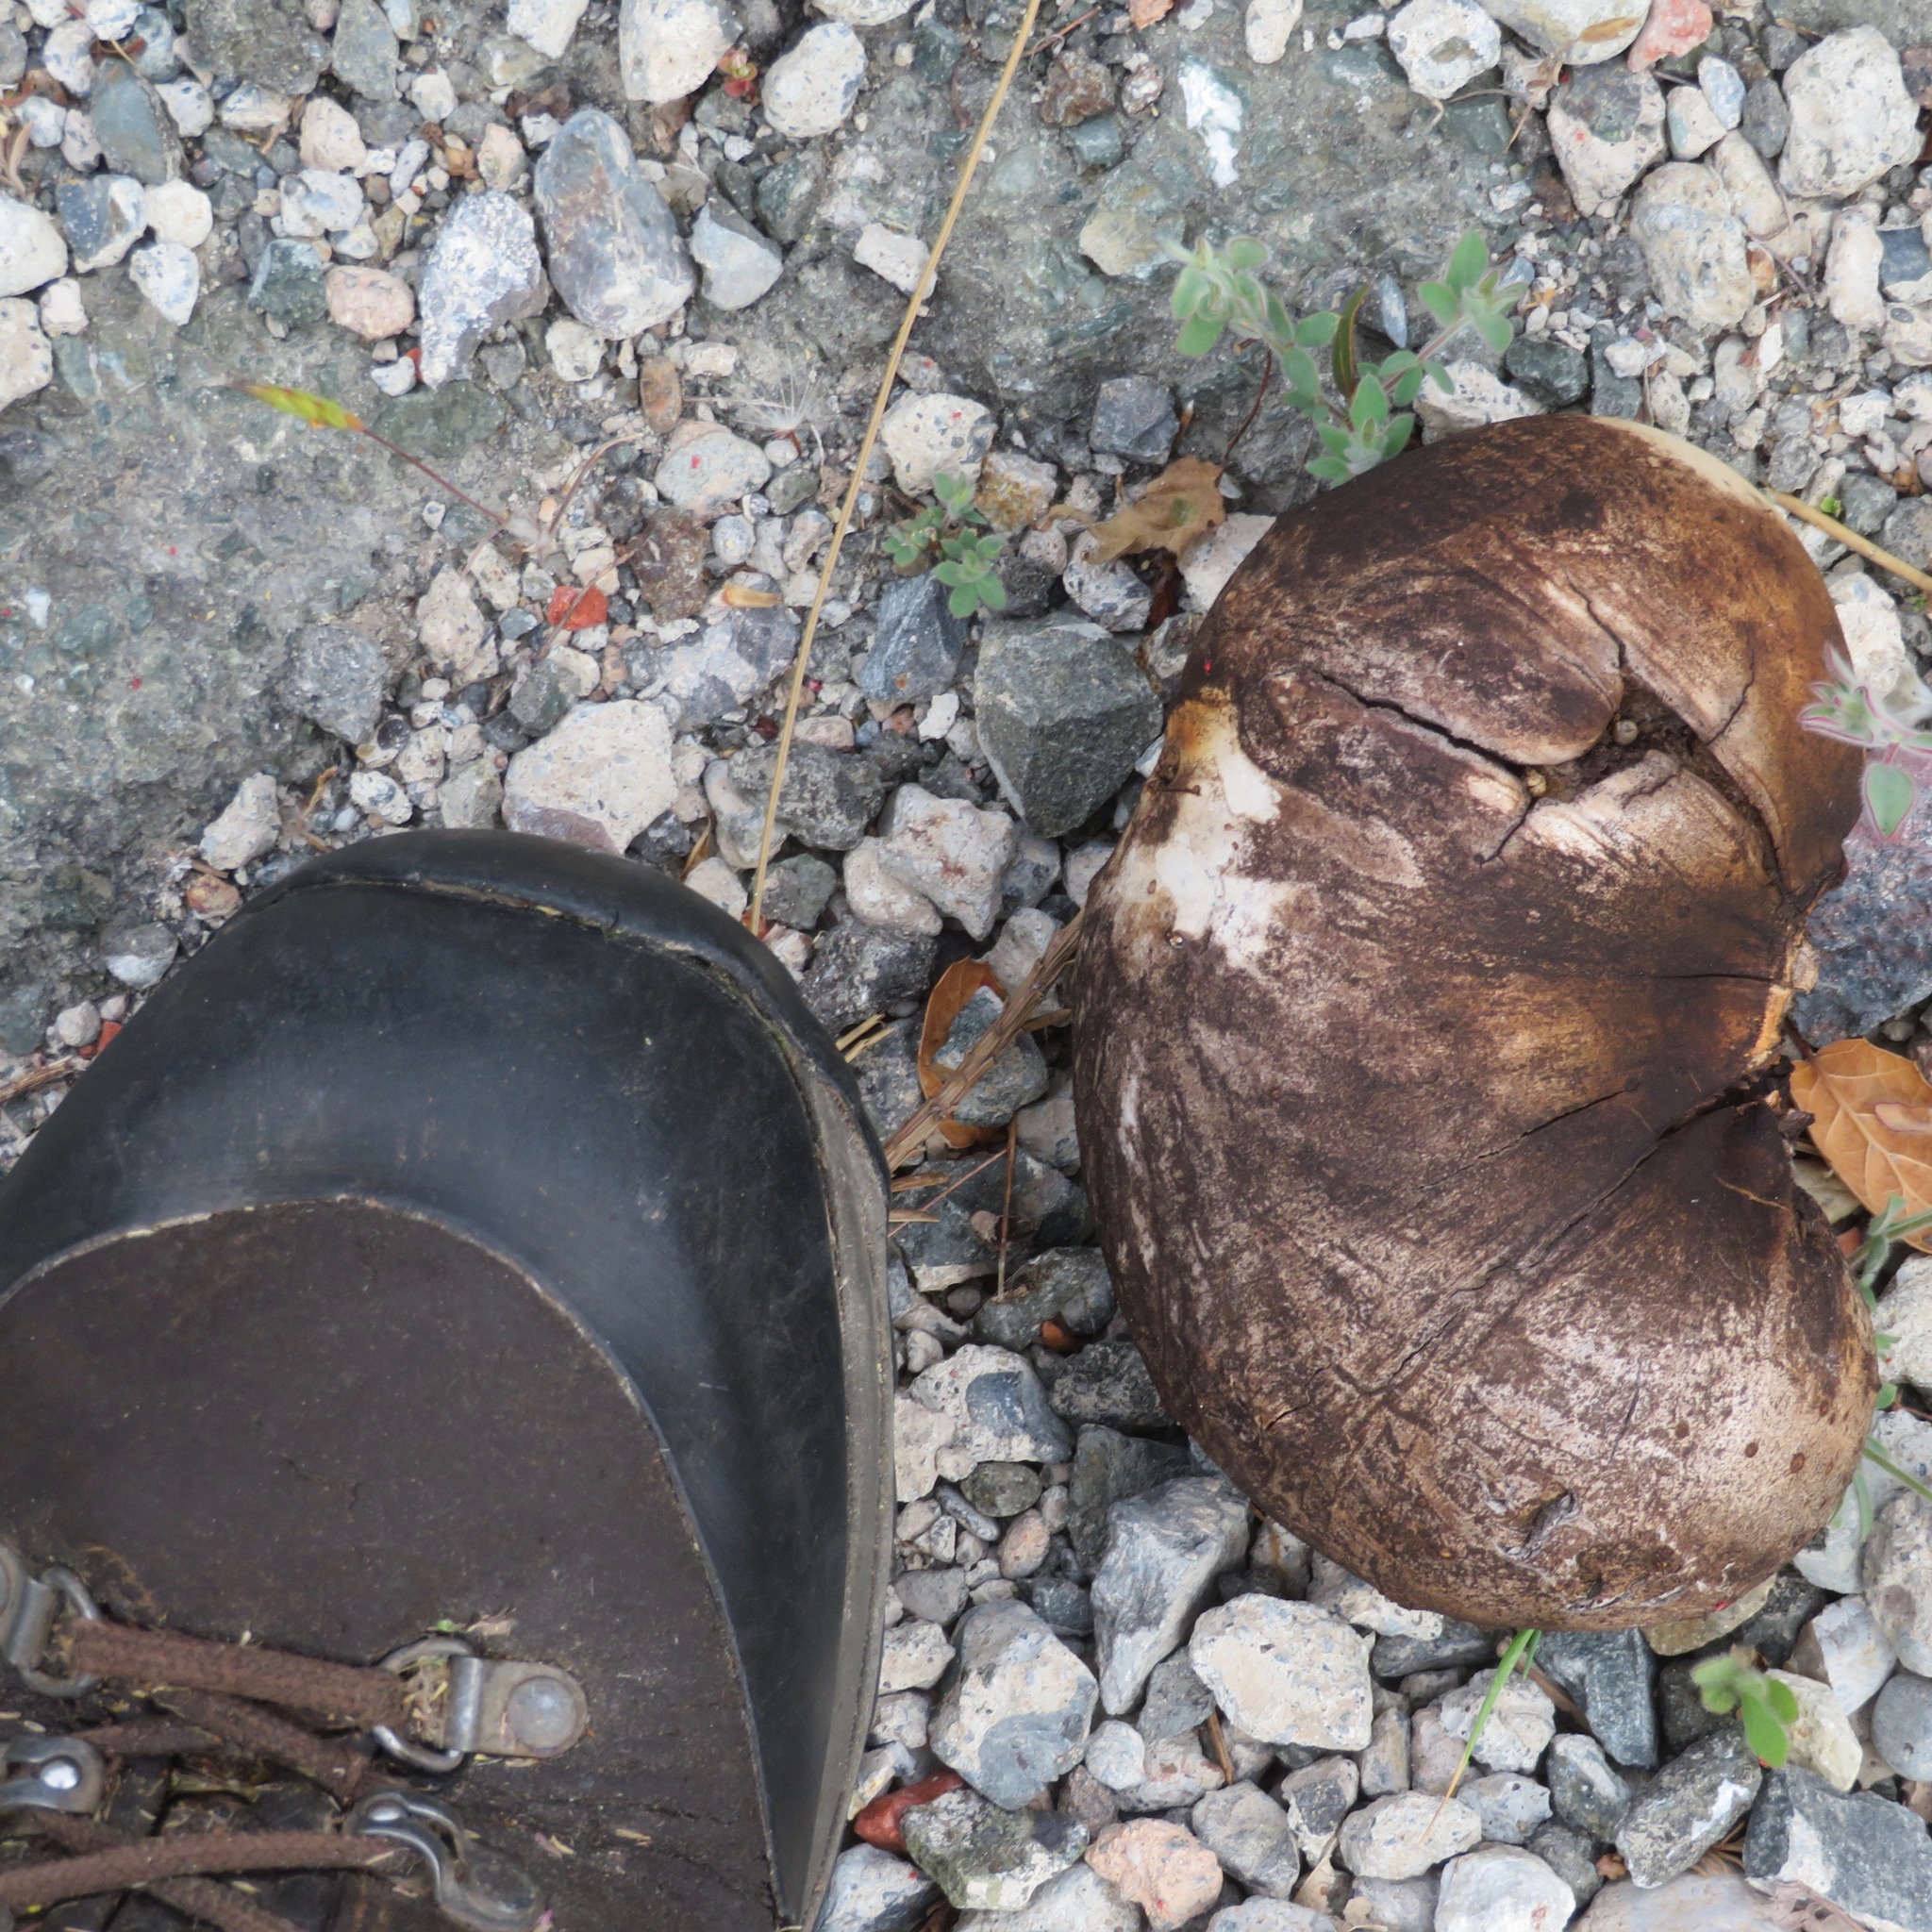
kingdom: Animalia
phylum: Arthropoda
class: Insecta
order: Hymenoptera
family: Cynipidae
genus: Andricus
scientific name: Andricus quercuscalifornicus
